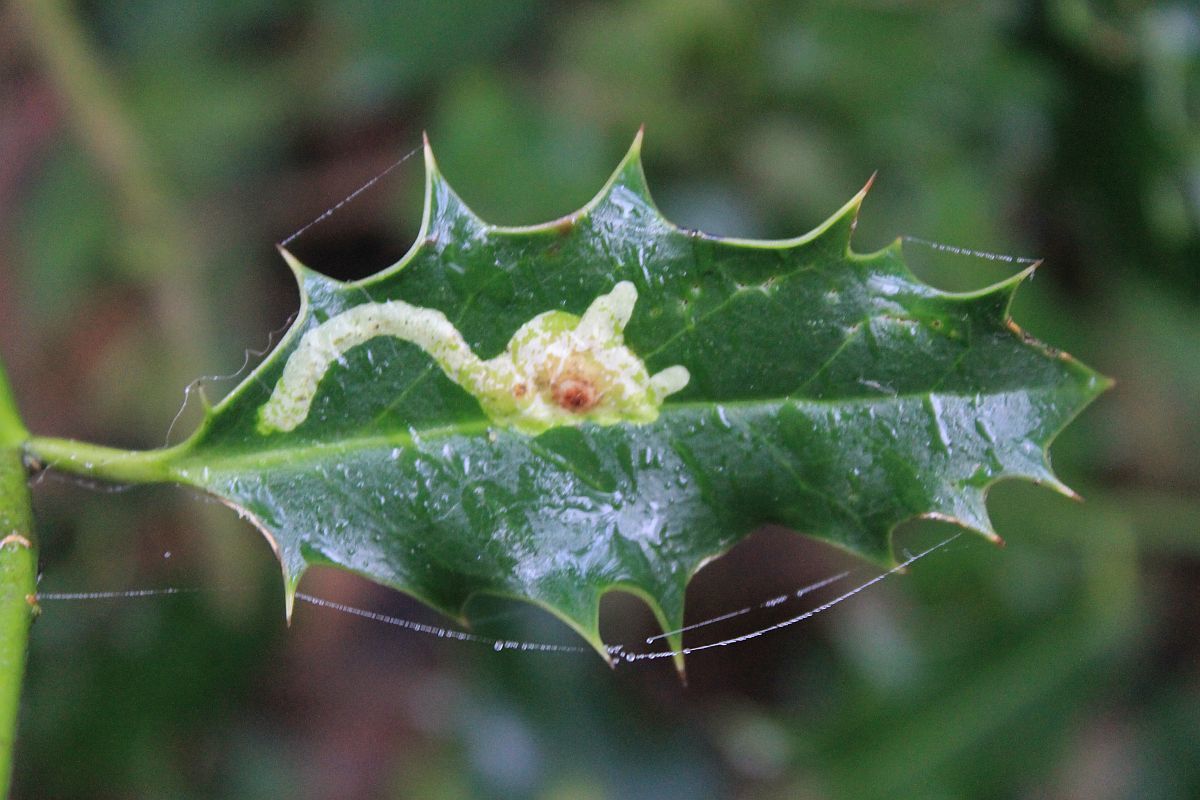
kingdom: Animalia
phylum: Arthropoda
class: Insecta
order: Diptera
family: Agromyzidae
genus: Phytomyza
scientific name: Phytomyza ilicis
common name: Holly leafminer
